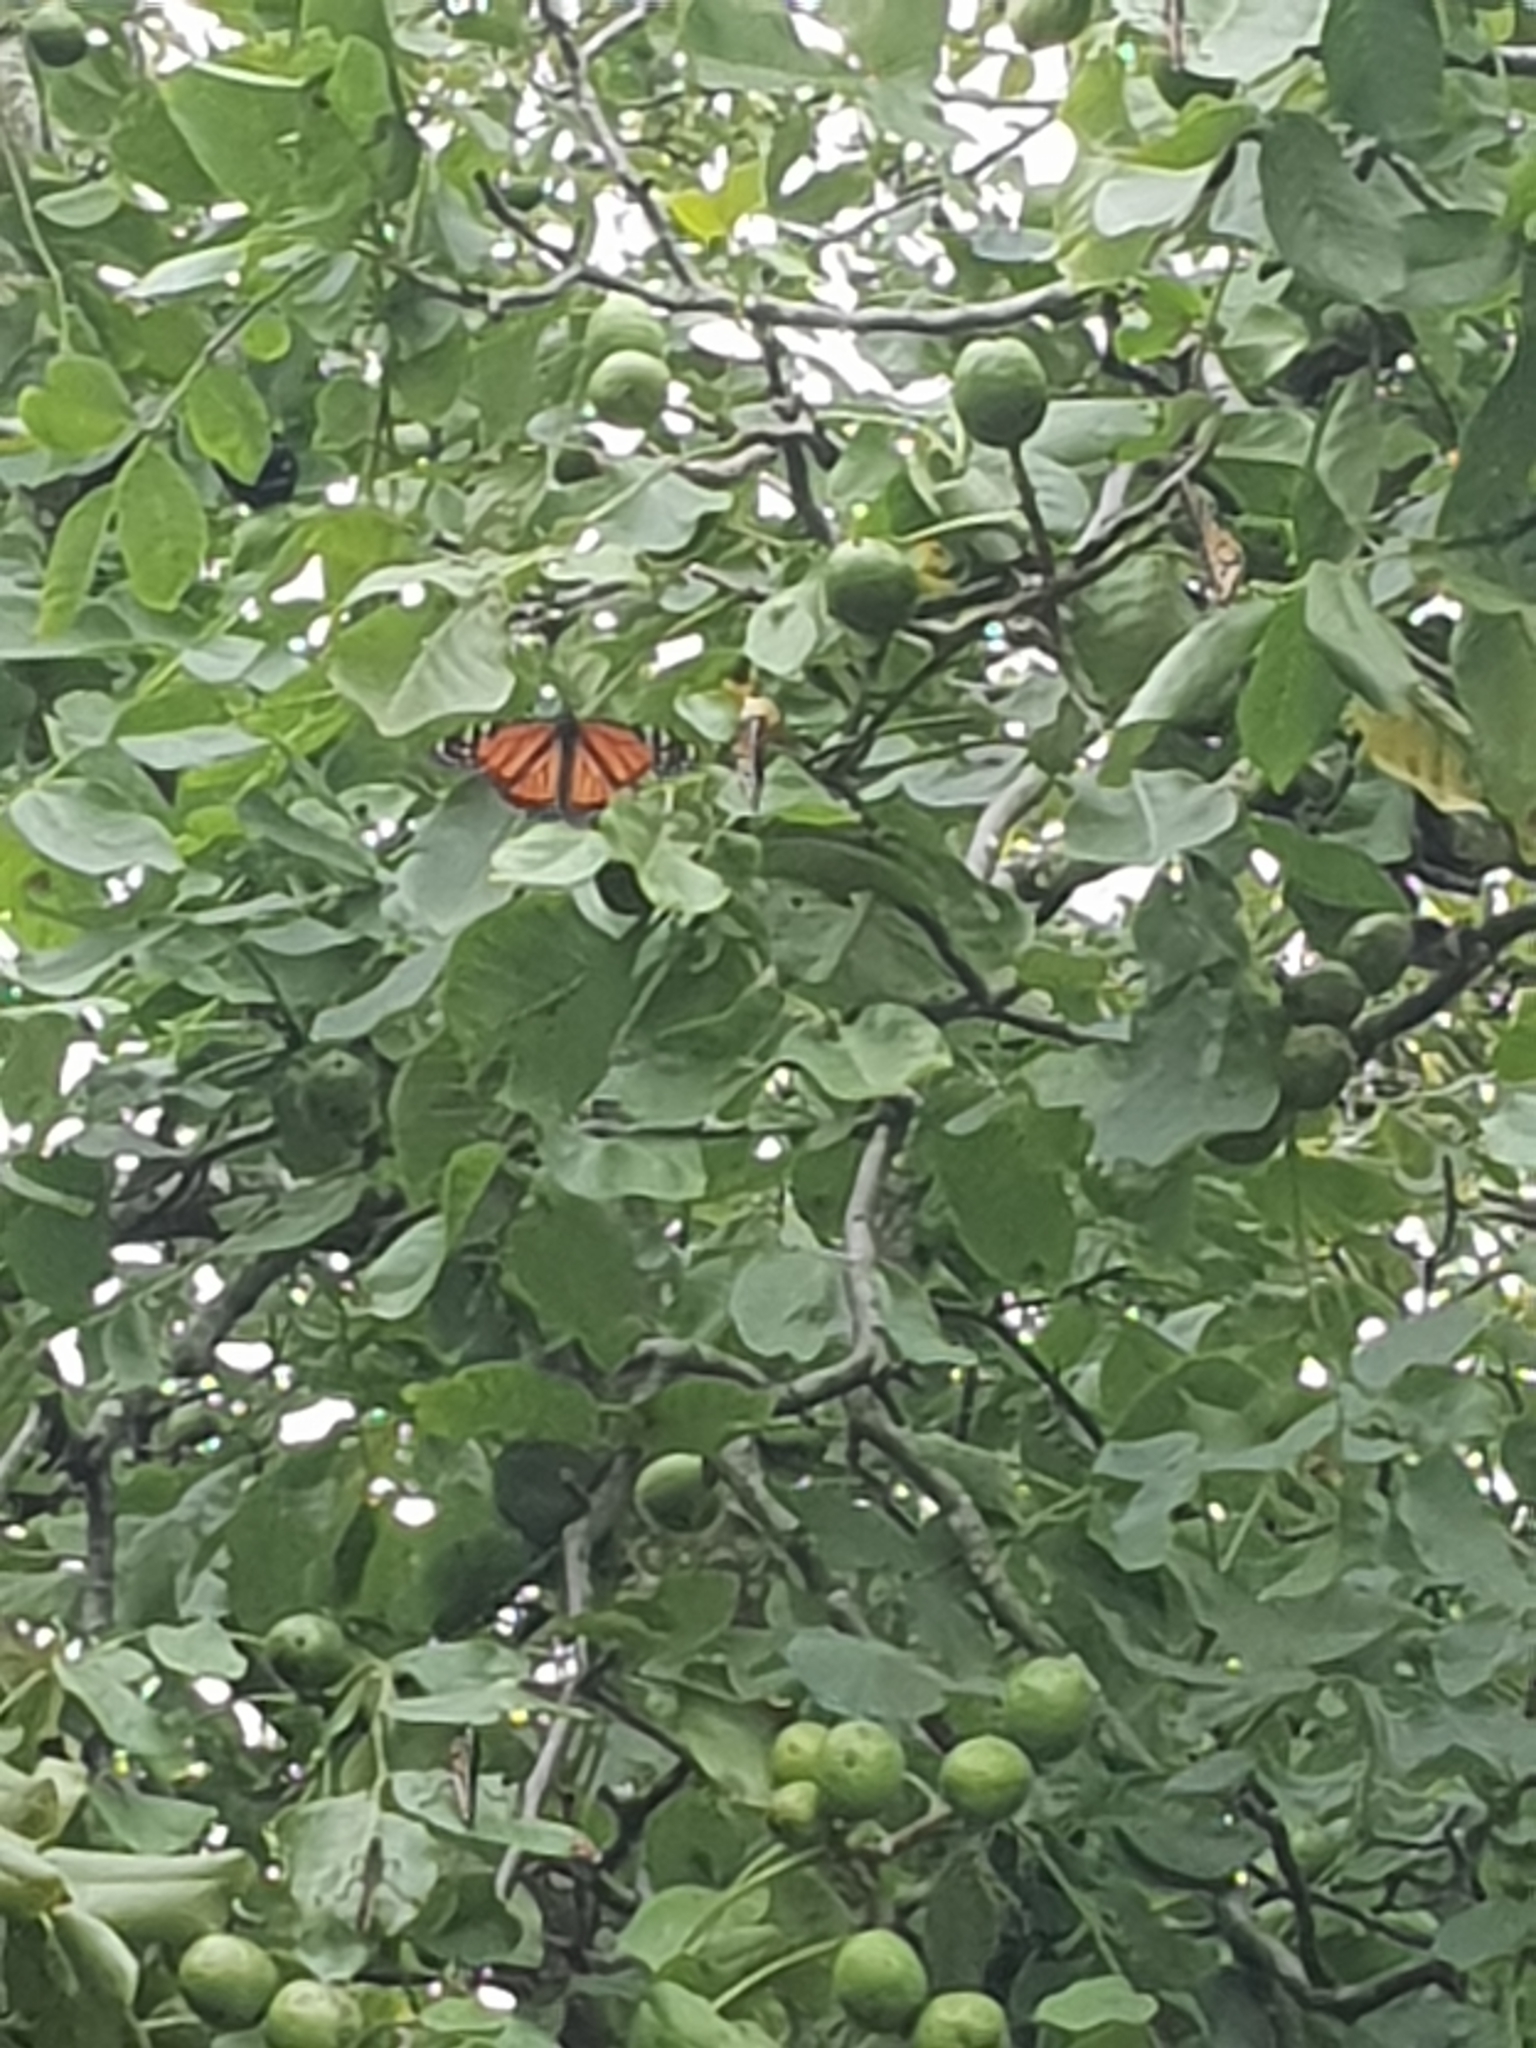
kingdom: Animalia
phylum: Arthropoda
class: Insecta
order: Lepidoptera
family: Nymphalidae
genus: Danaus
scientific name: Danaus plexippus
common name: Monarch
